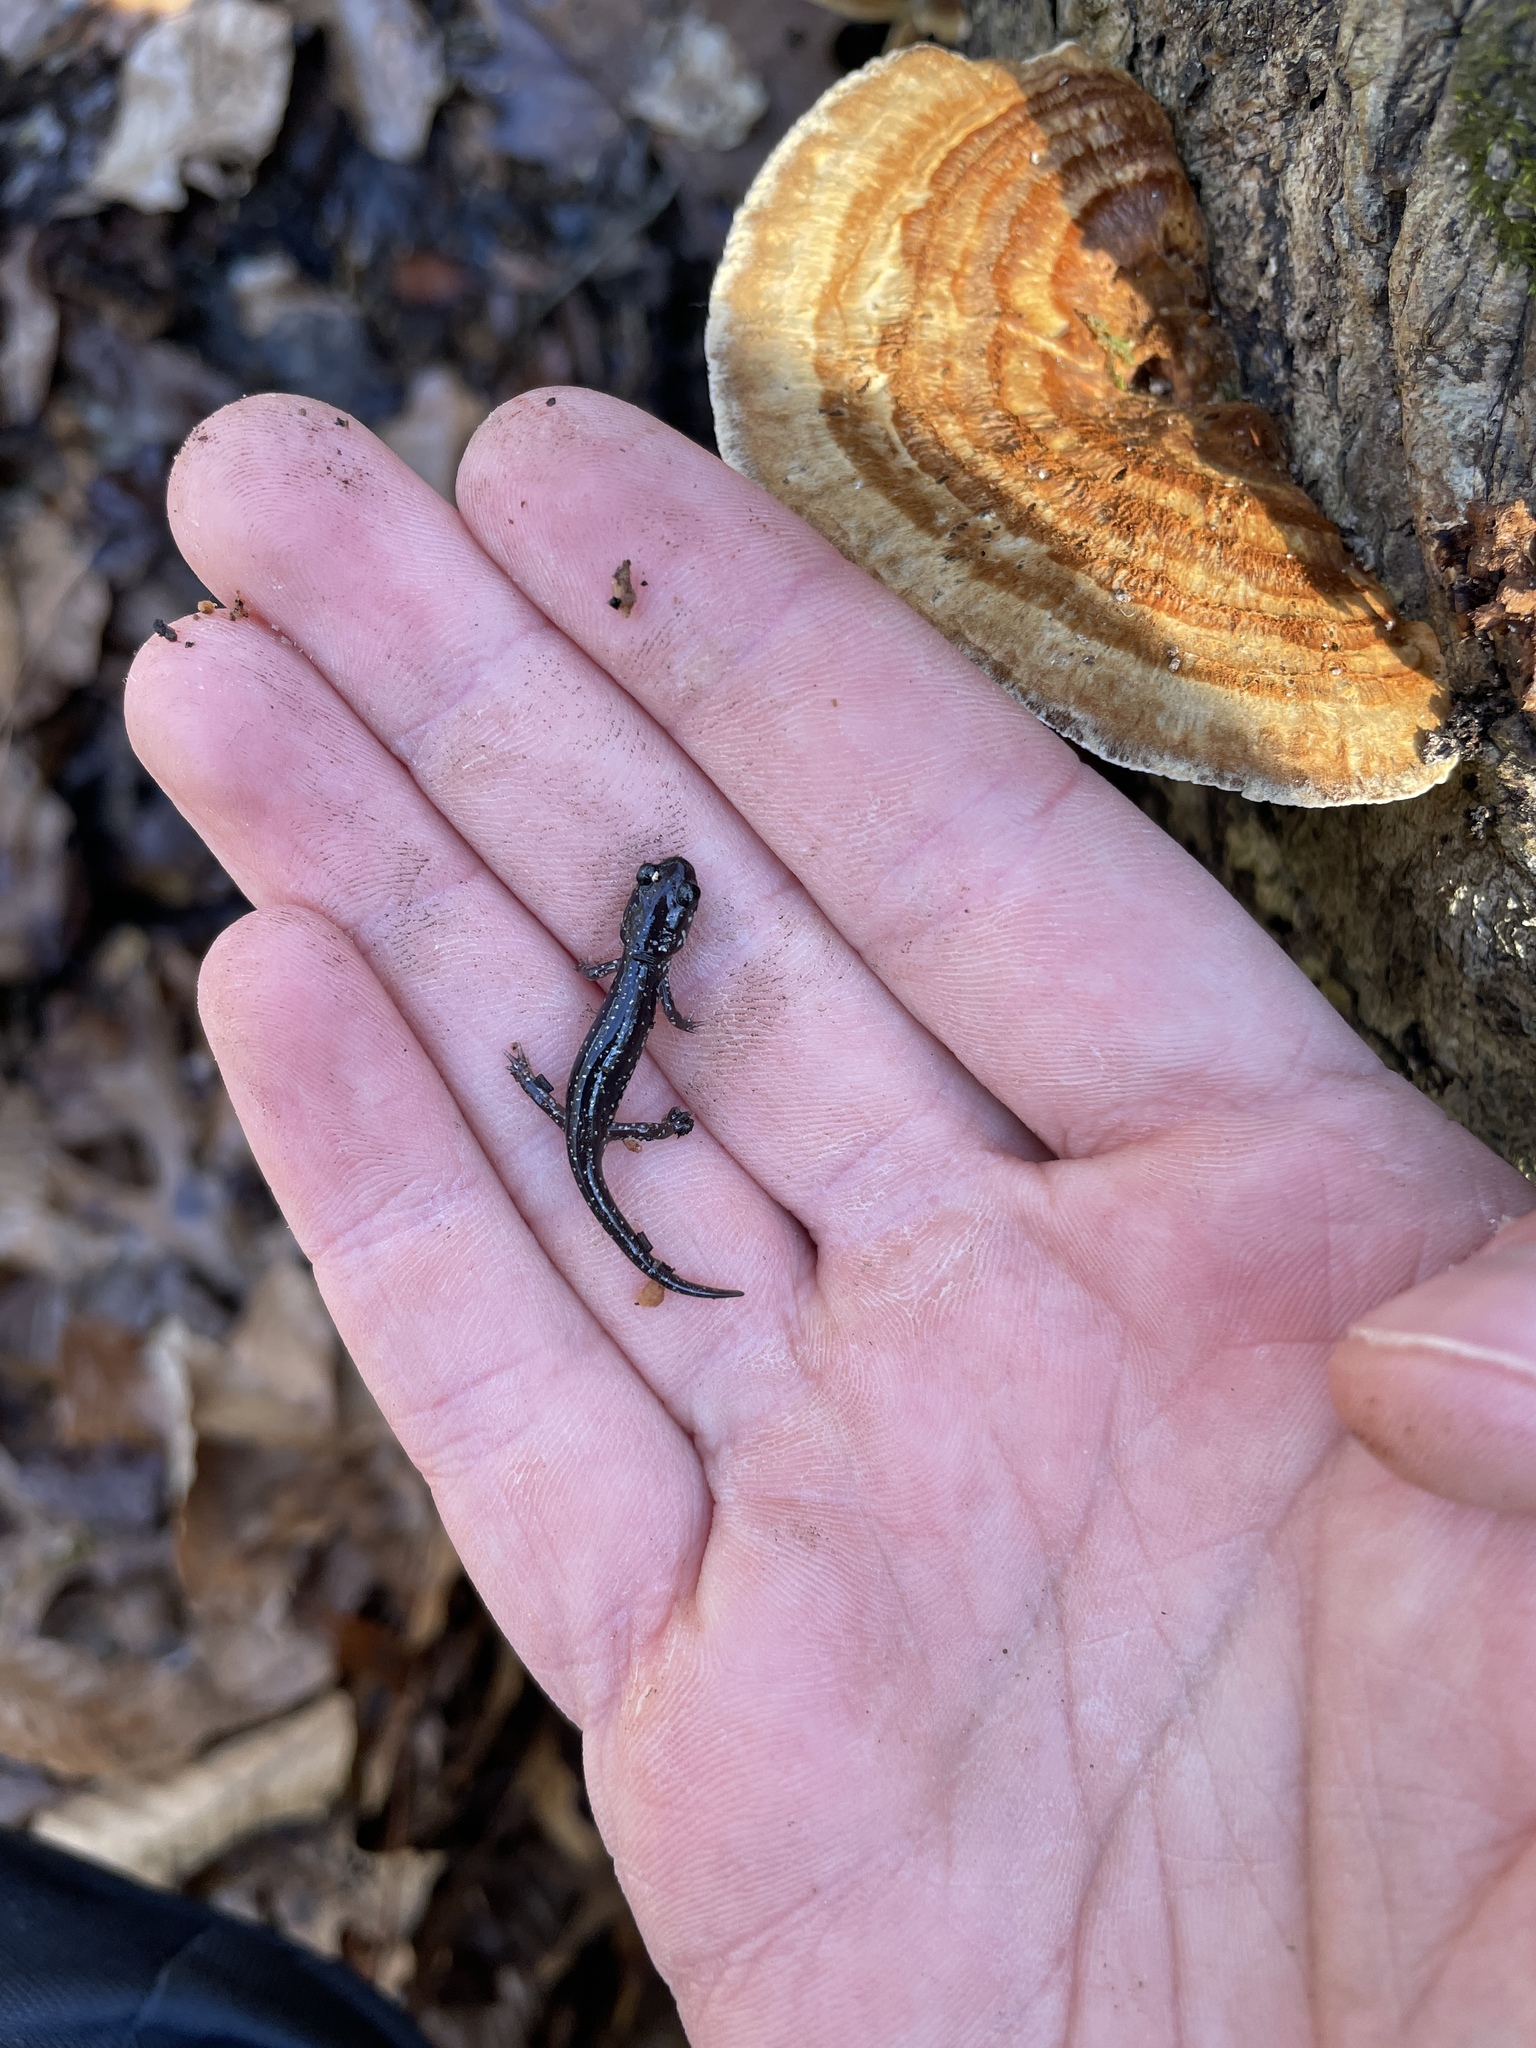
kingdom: Animalia
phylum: Chordata
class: Amphibia
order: Caudata
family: Plethodontidae
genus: Plethodon
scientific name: Plethodon mississippi
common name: Mississippi slimy salamander
